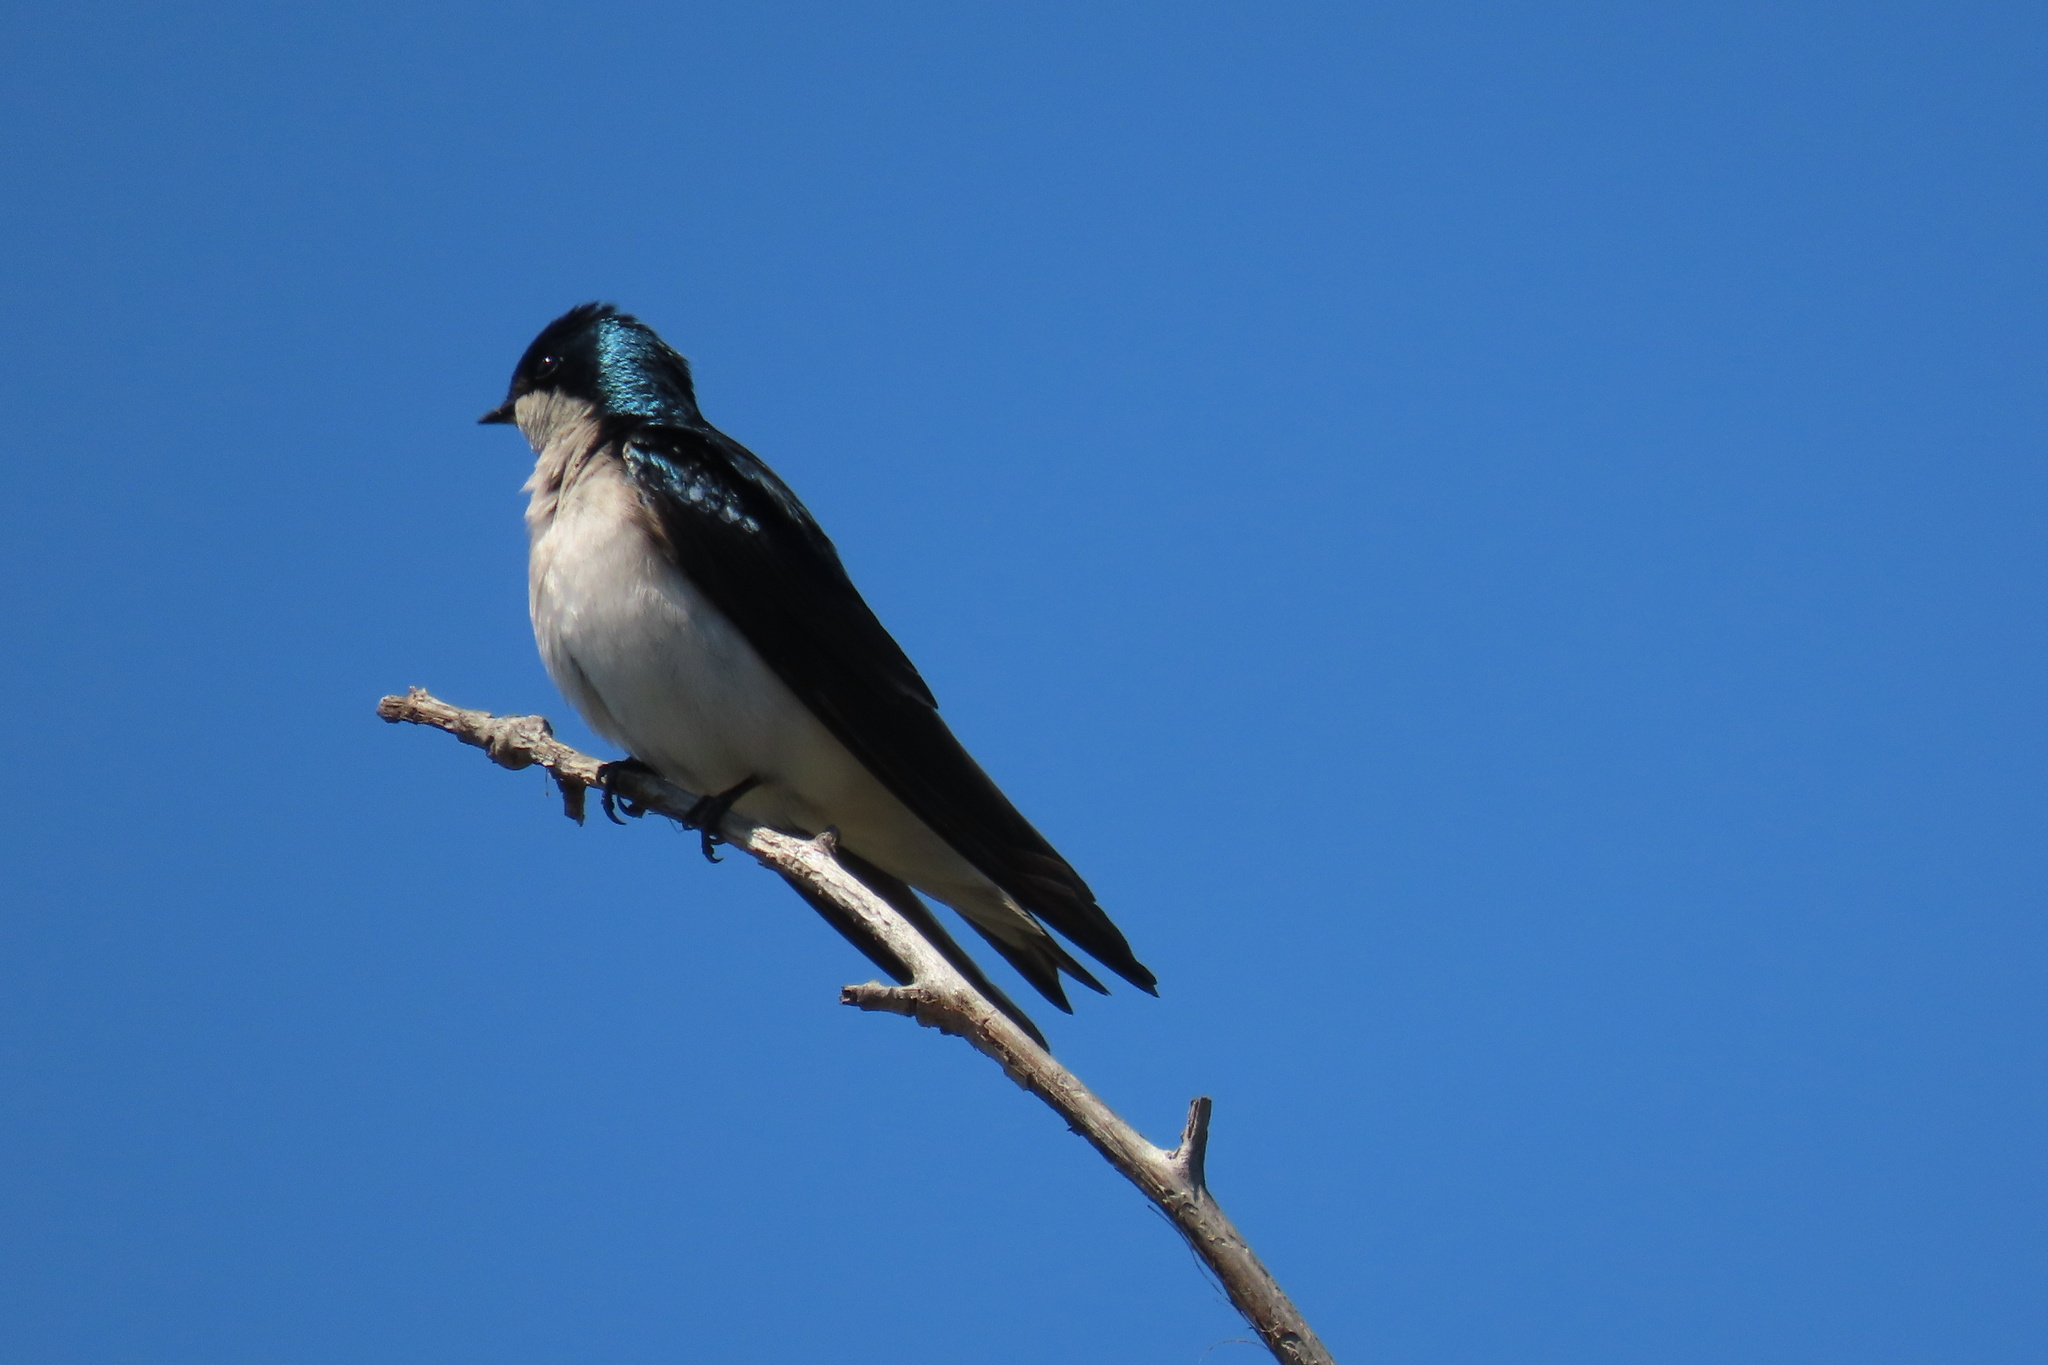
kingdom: Animalia
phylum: Chordata
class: Aves
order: Passeriformes
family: Hirundinidae
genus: Tachycineta
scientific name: Tachycineta bicolor
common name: Tree swallow
